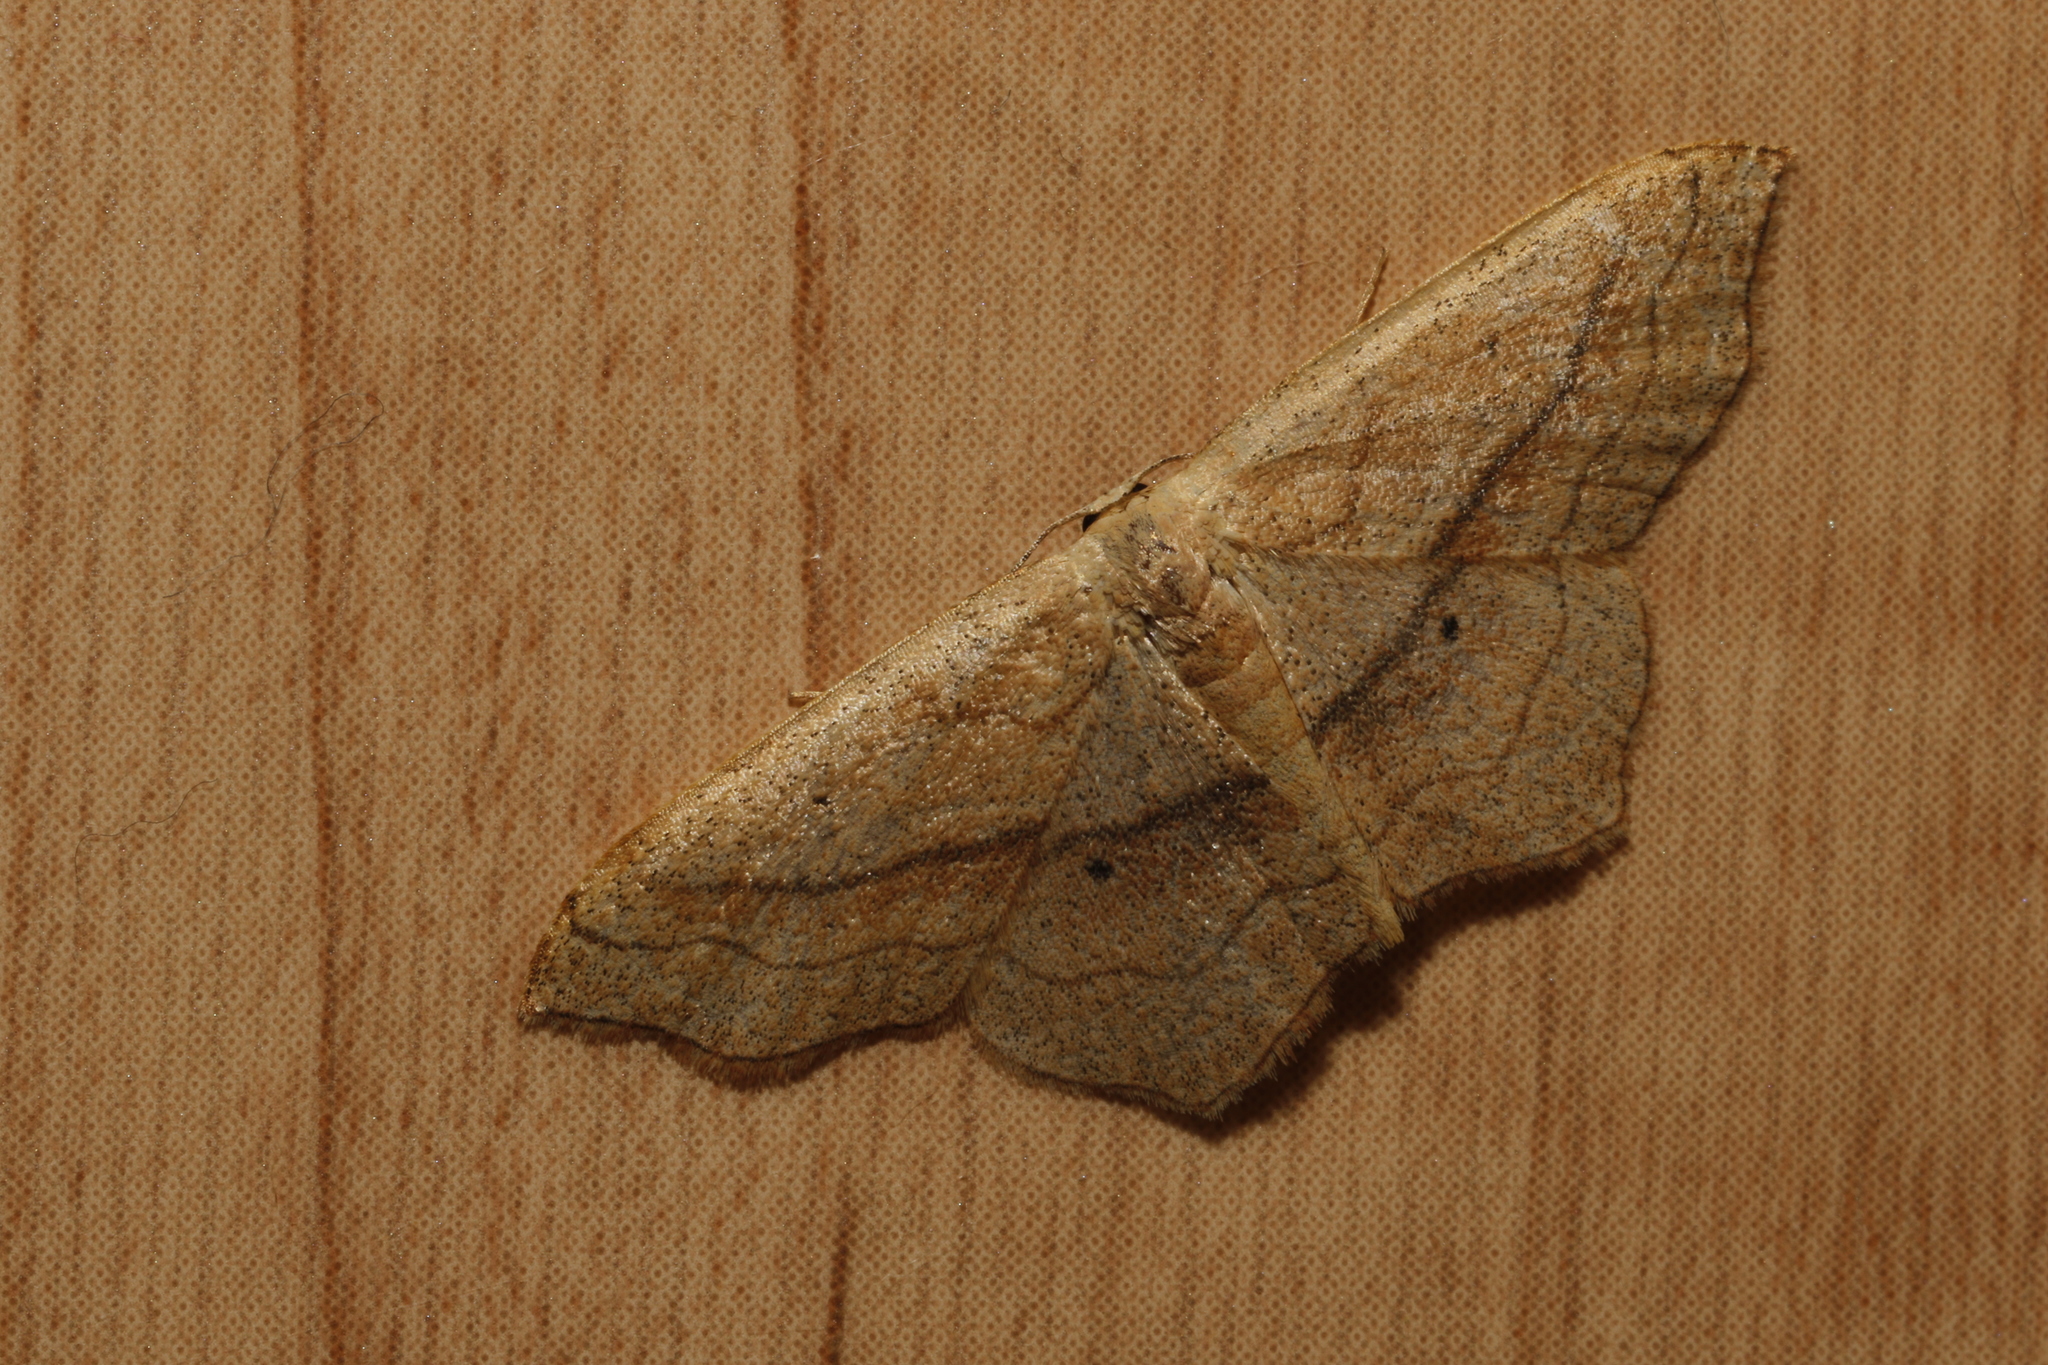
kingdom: Animalia
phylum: Arthropoda
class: Insecta
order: Lepidoptera
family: Geometridae
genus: Scopula
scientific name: Scopula imitaria
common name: Small blood-vein
